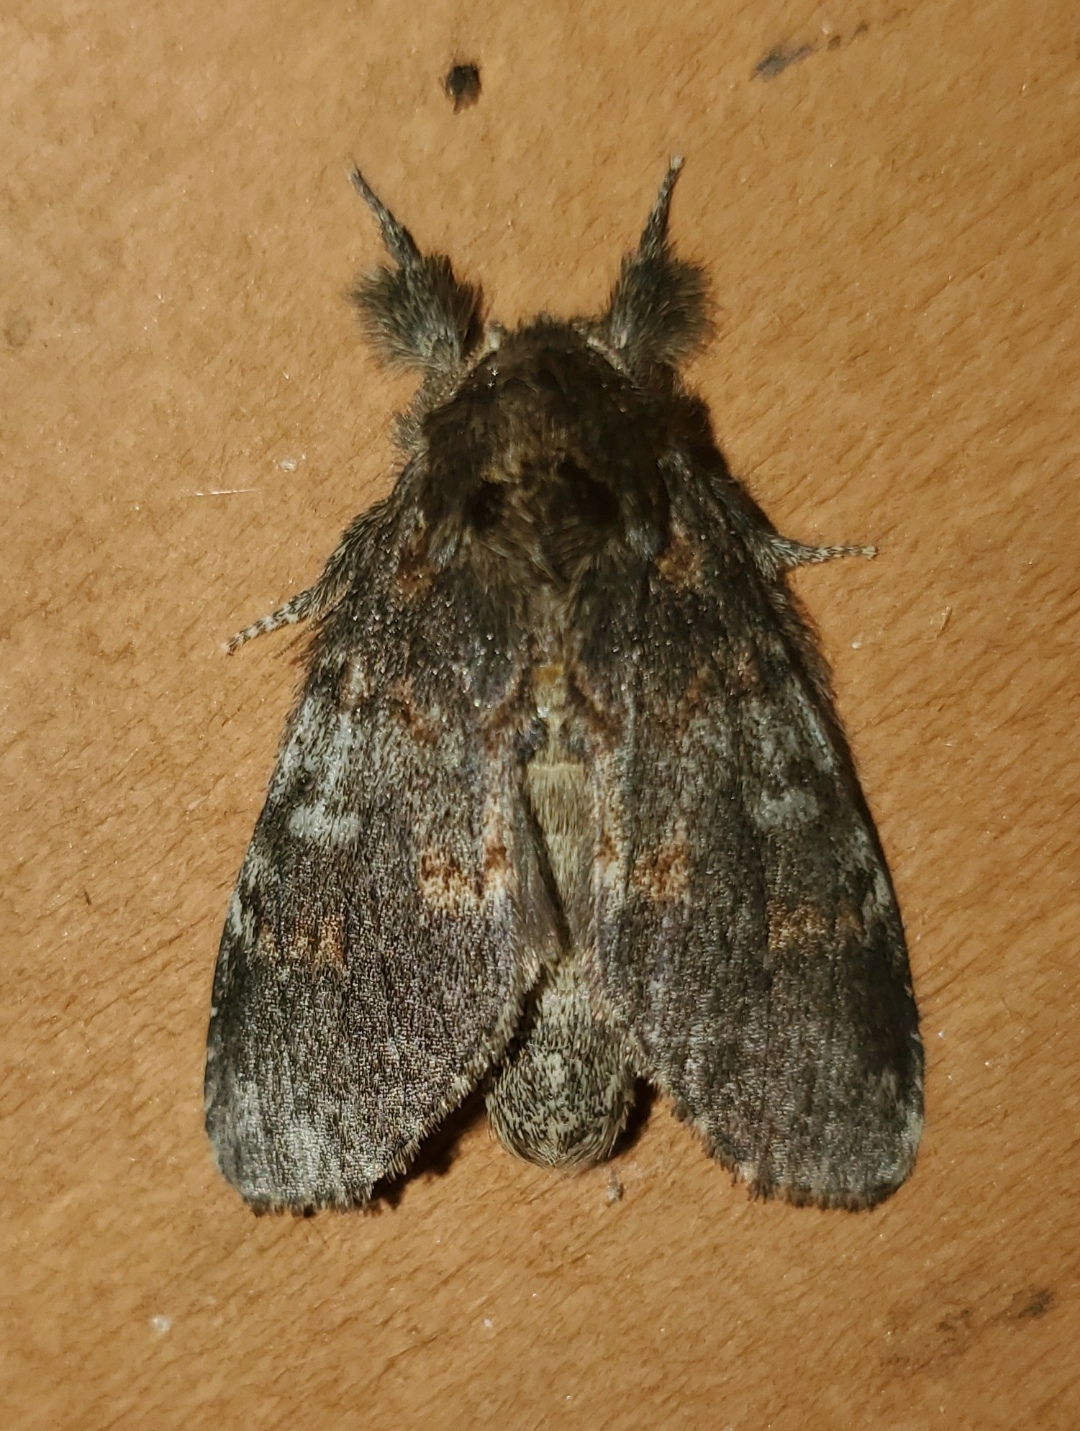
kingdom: Animalia
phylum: Arthropoda
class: Insecta
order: Lepidoptera
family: Notodontidae
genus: Peridea
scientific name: Peridea angulosa
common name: Angulose prominent
